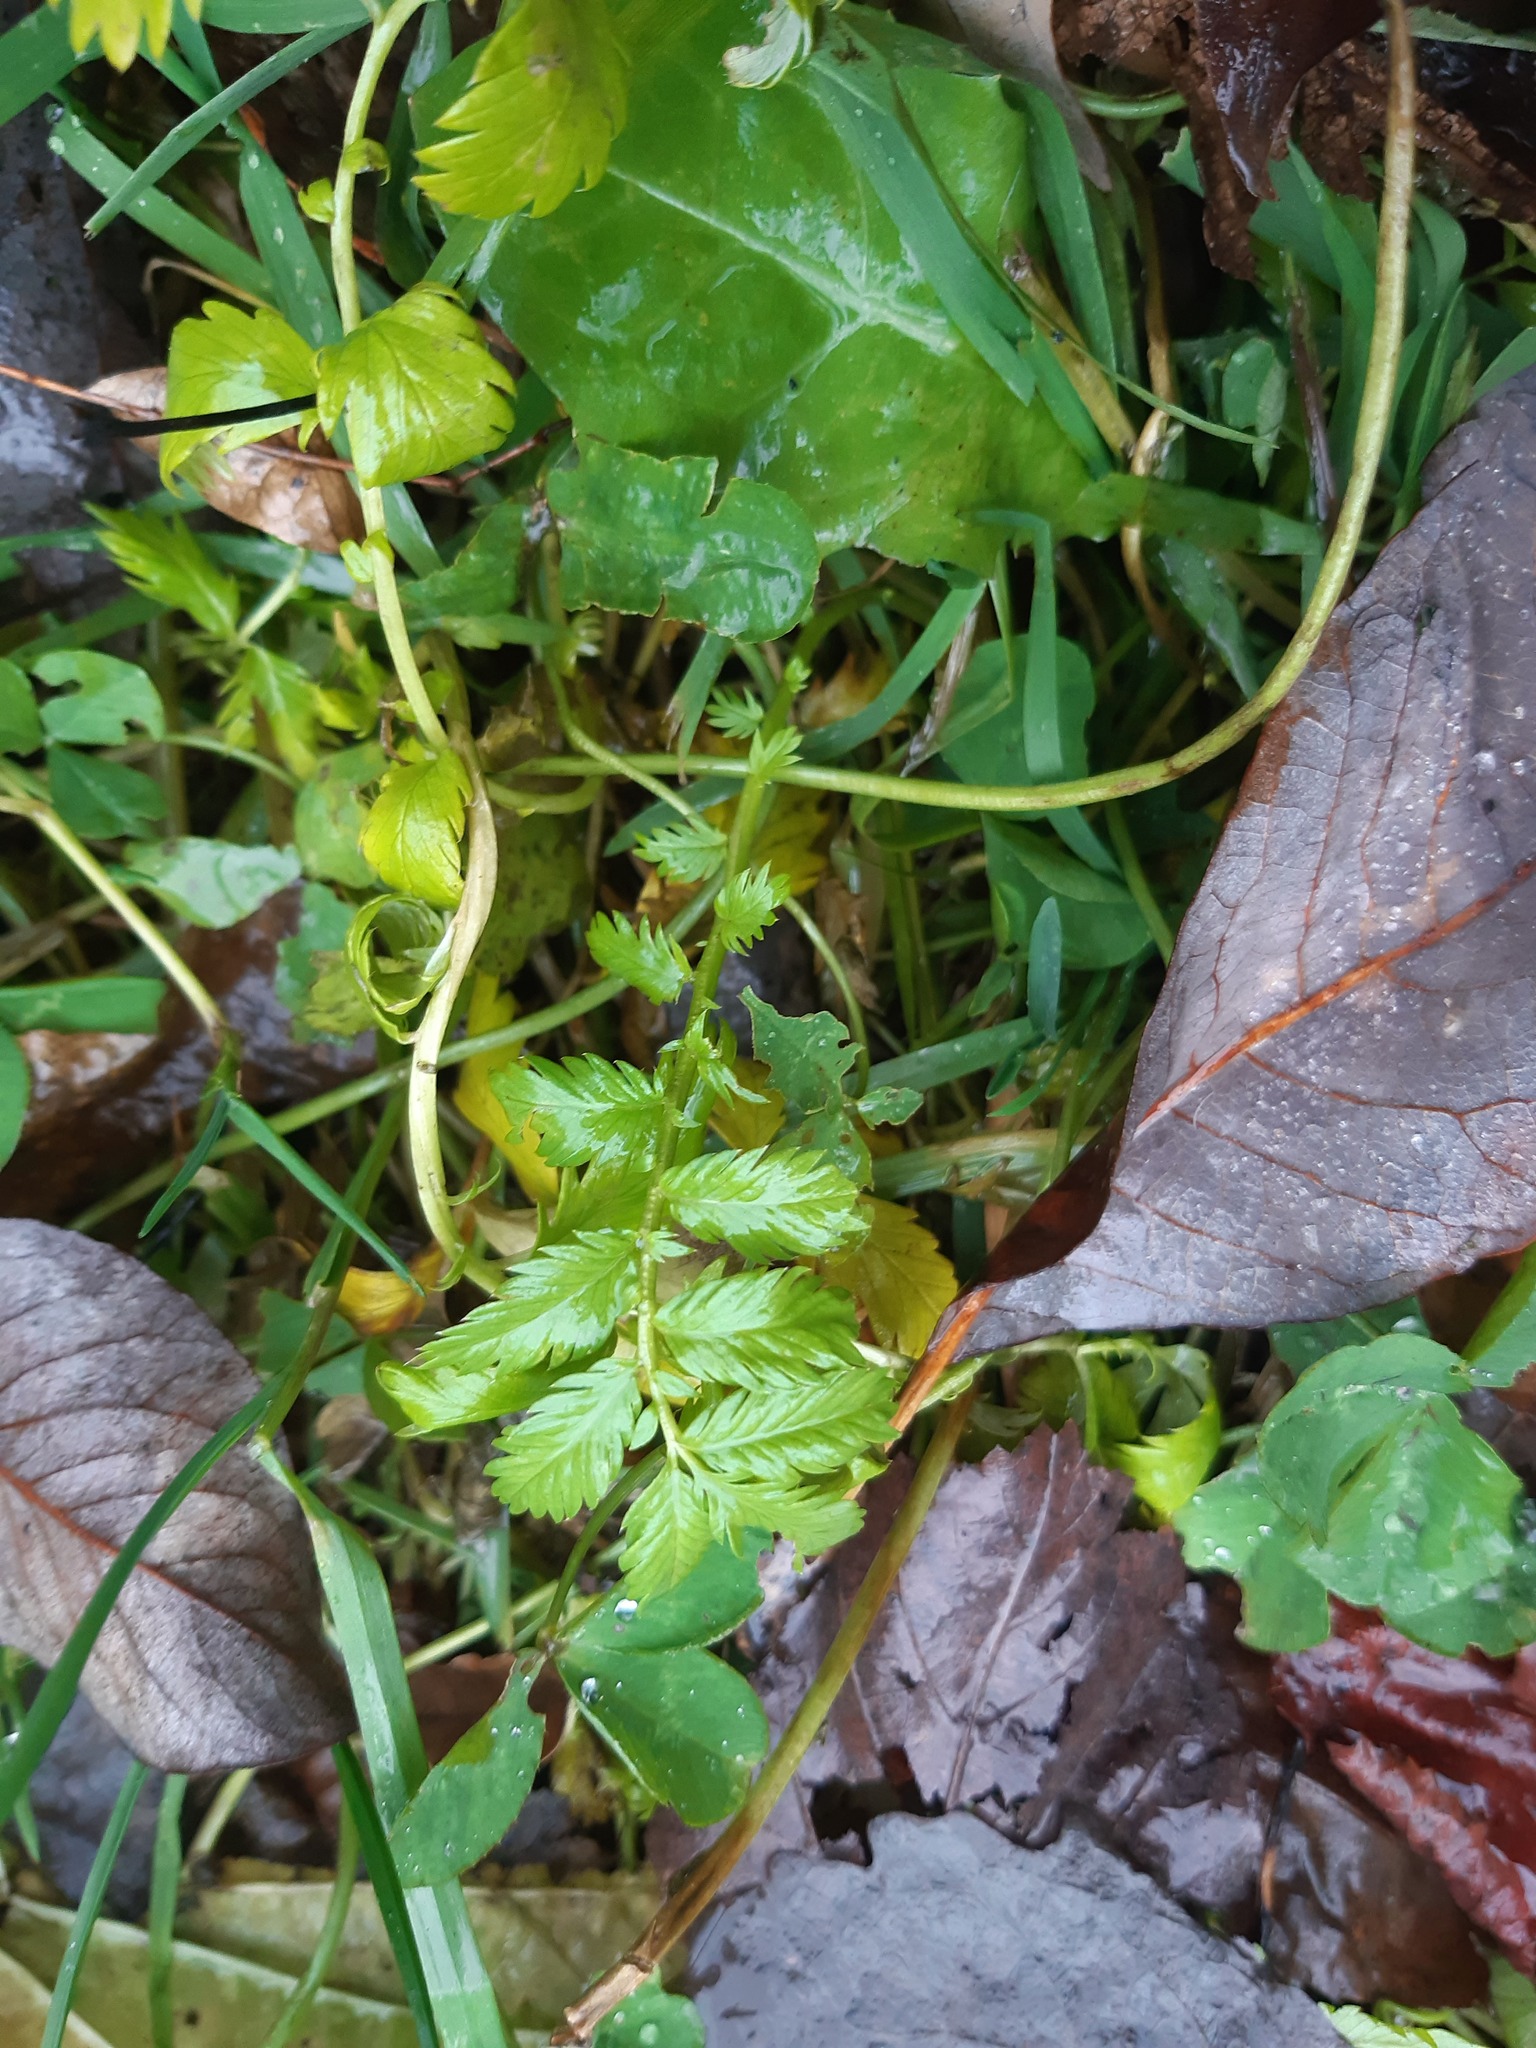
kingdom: Plantae
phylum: Tracheophyta
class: Magnoliopsida
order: Rosales
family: Rosaceae
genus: Argentina
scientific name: Argentina anserina
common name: Common silverweed
